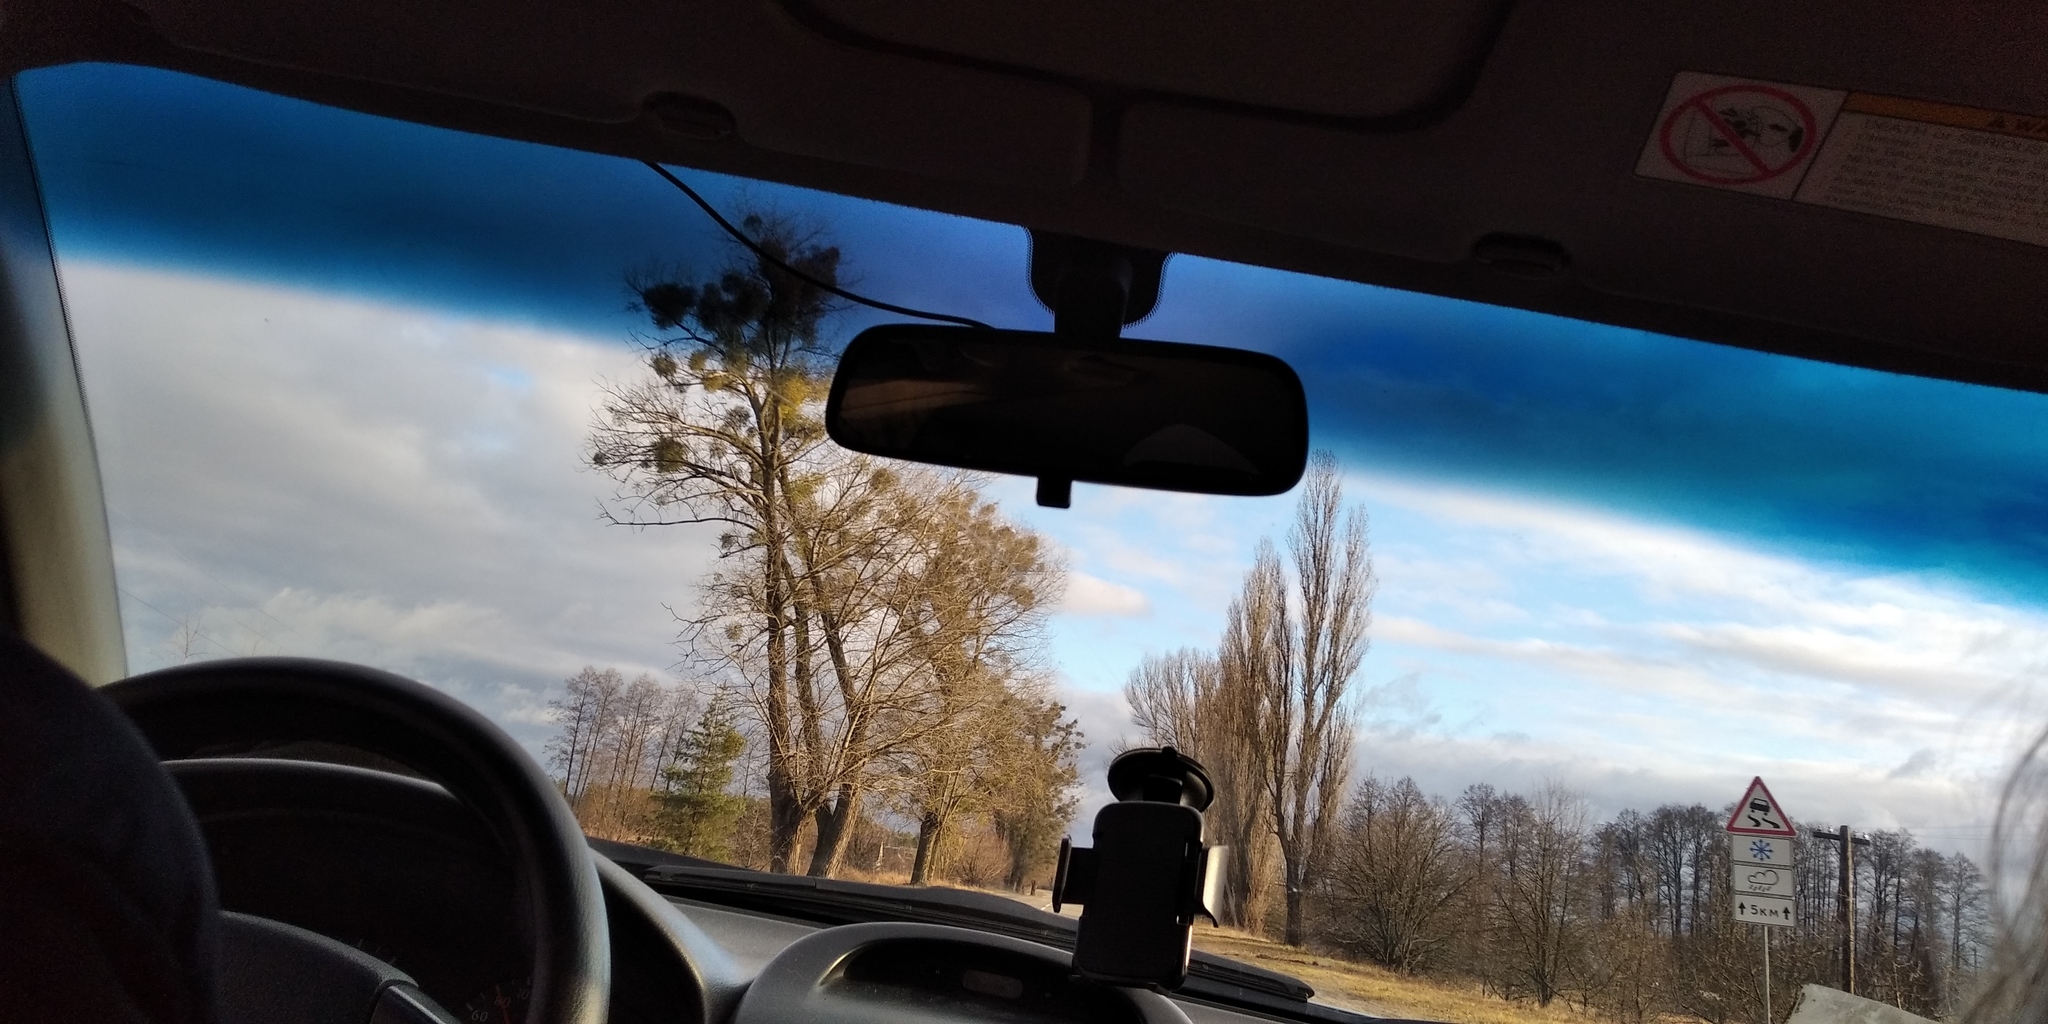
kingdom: Plantae
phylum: Tracheophyta
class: Magnoliopsida
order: Santalales
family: Viscaceae
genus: Viscum
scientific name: Viscum album
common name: Mistletoe
